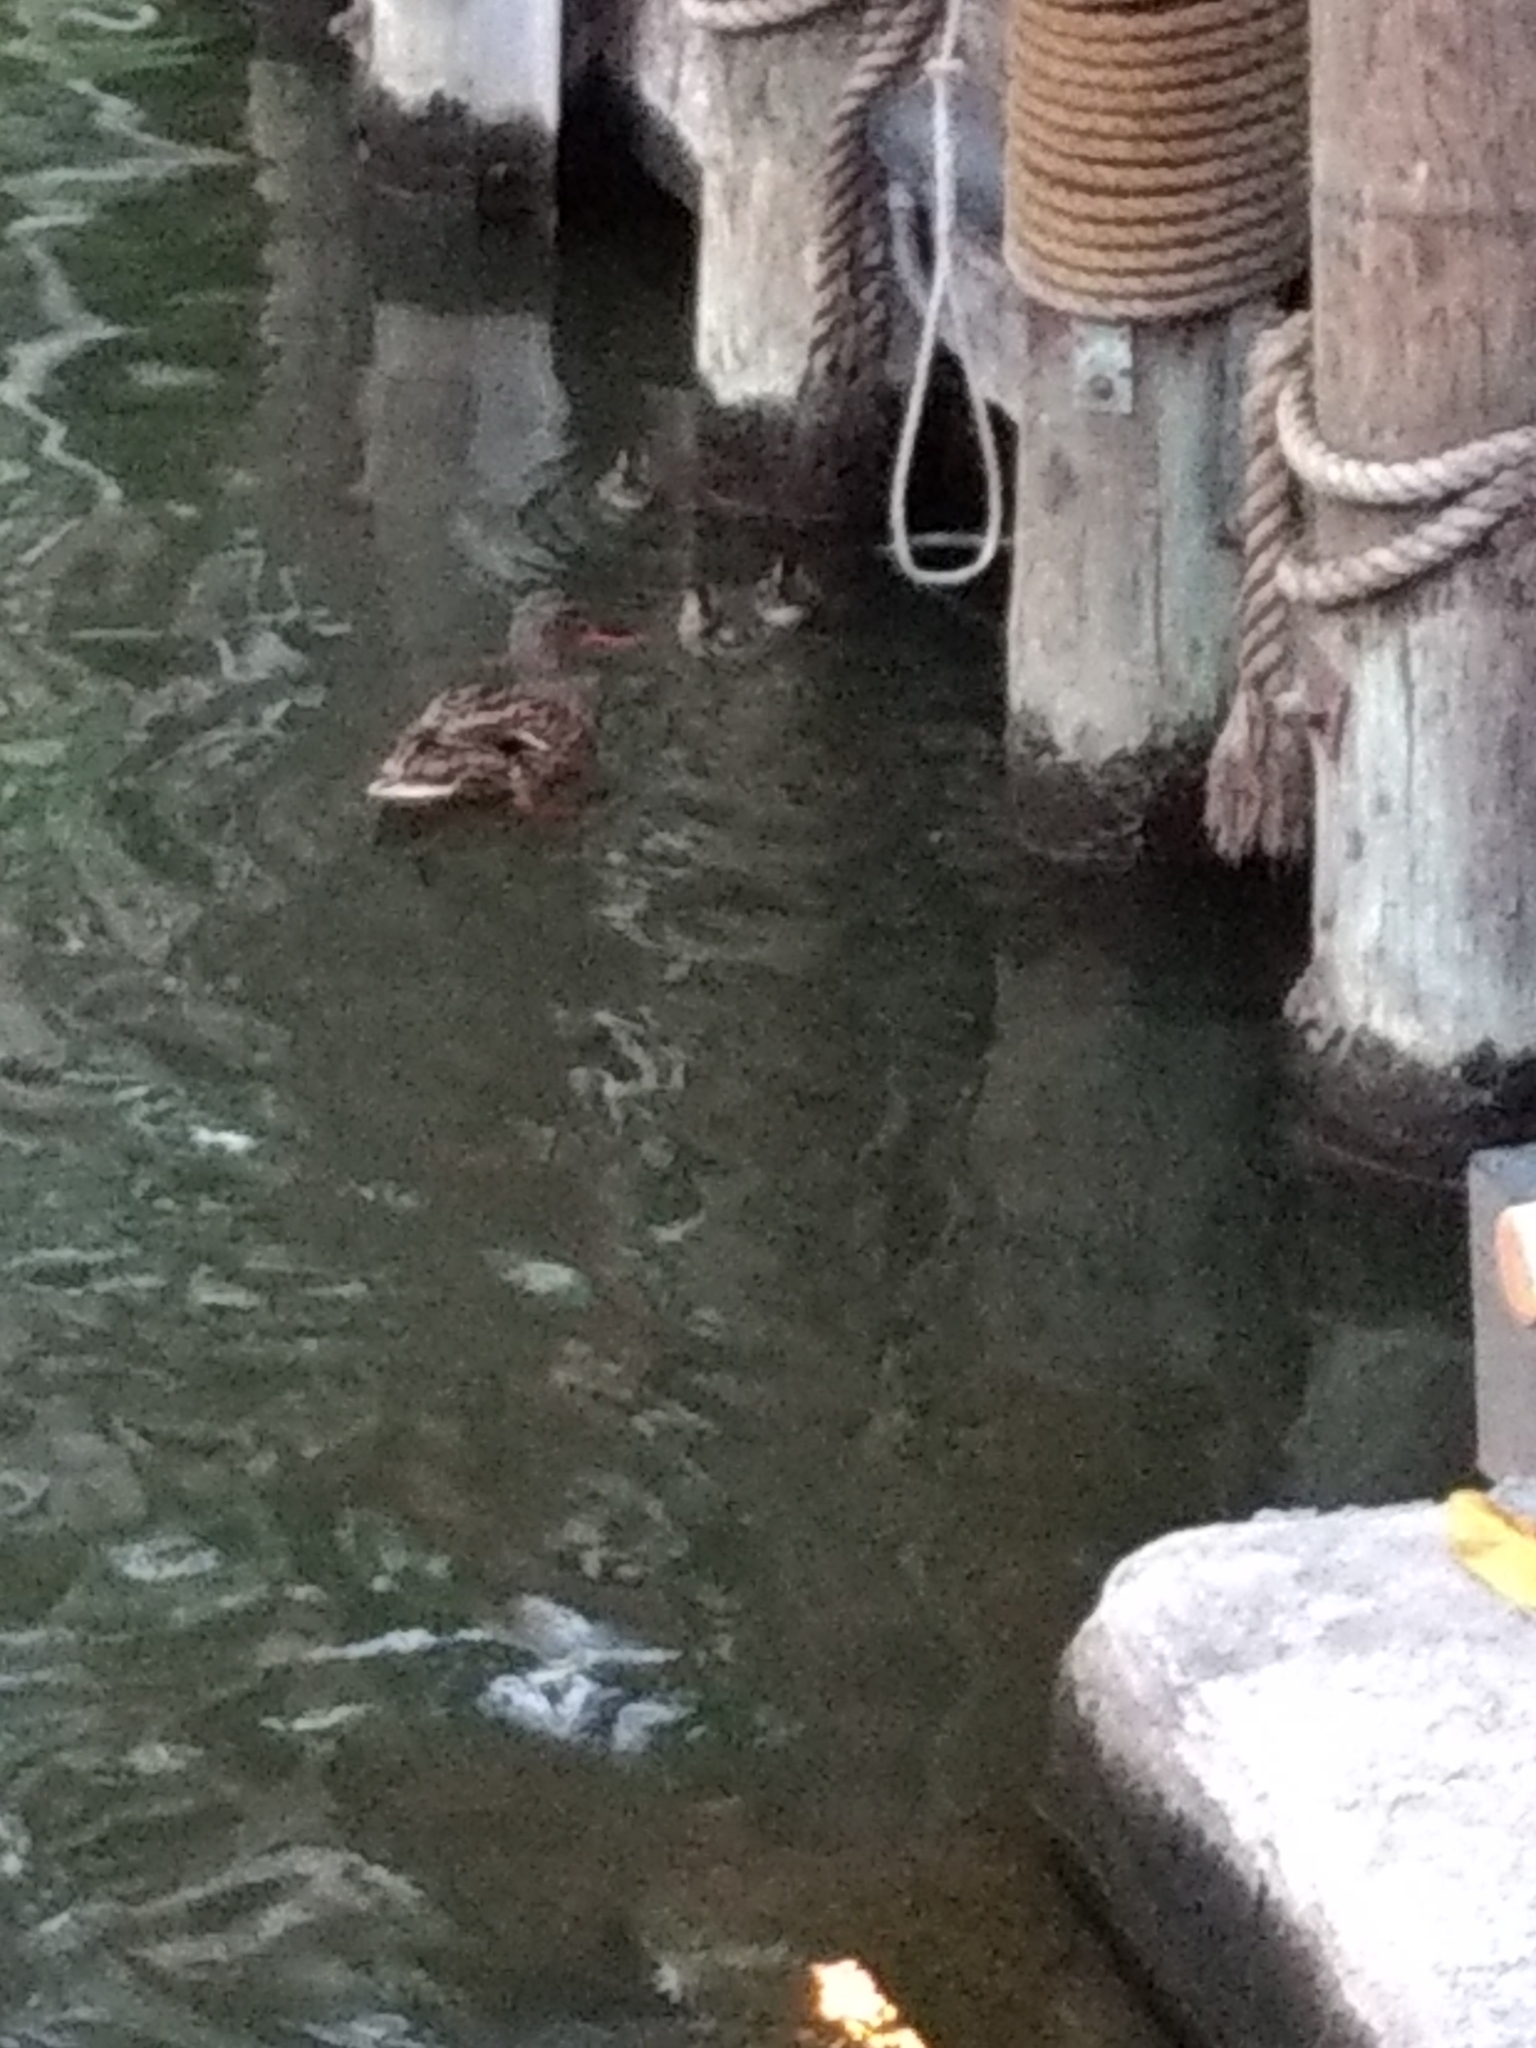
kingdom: Animalia
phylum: Chordata
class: Aves
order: Anseriformes
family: Anatidae
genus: Anas
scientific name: Anas platyrhynchos
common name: Mallard
